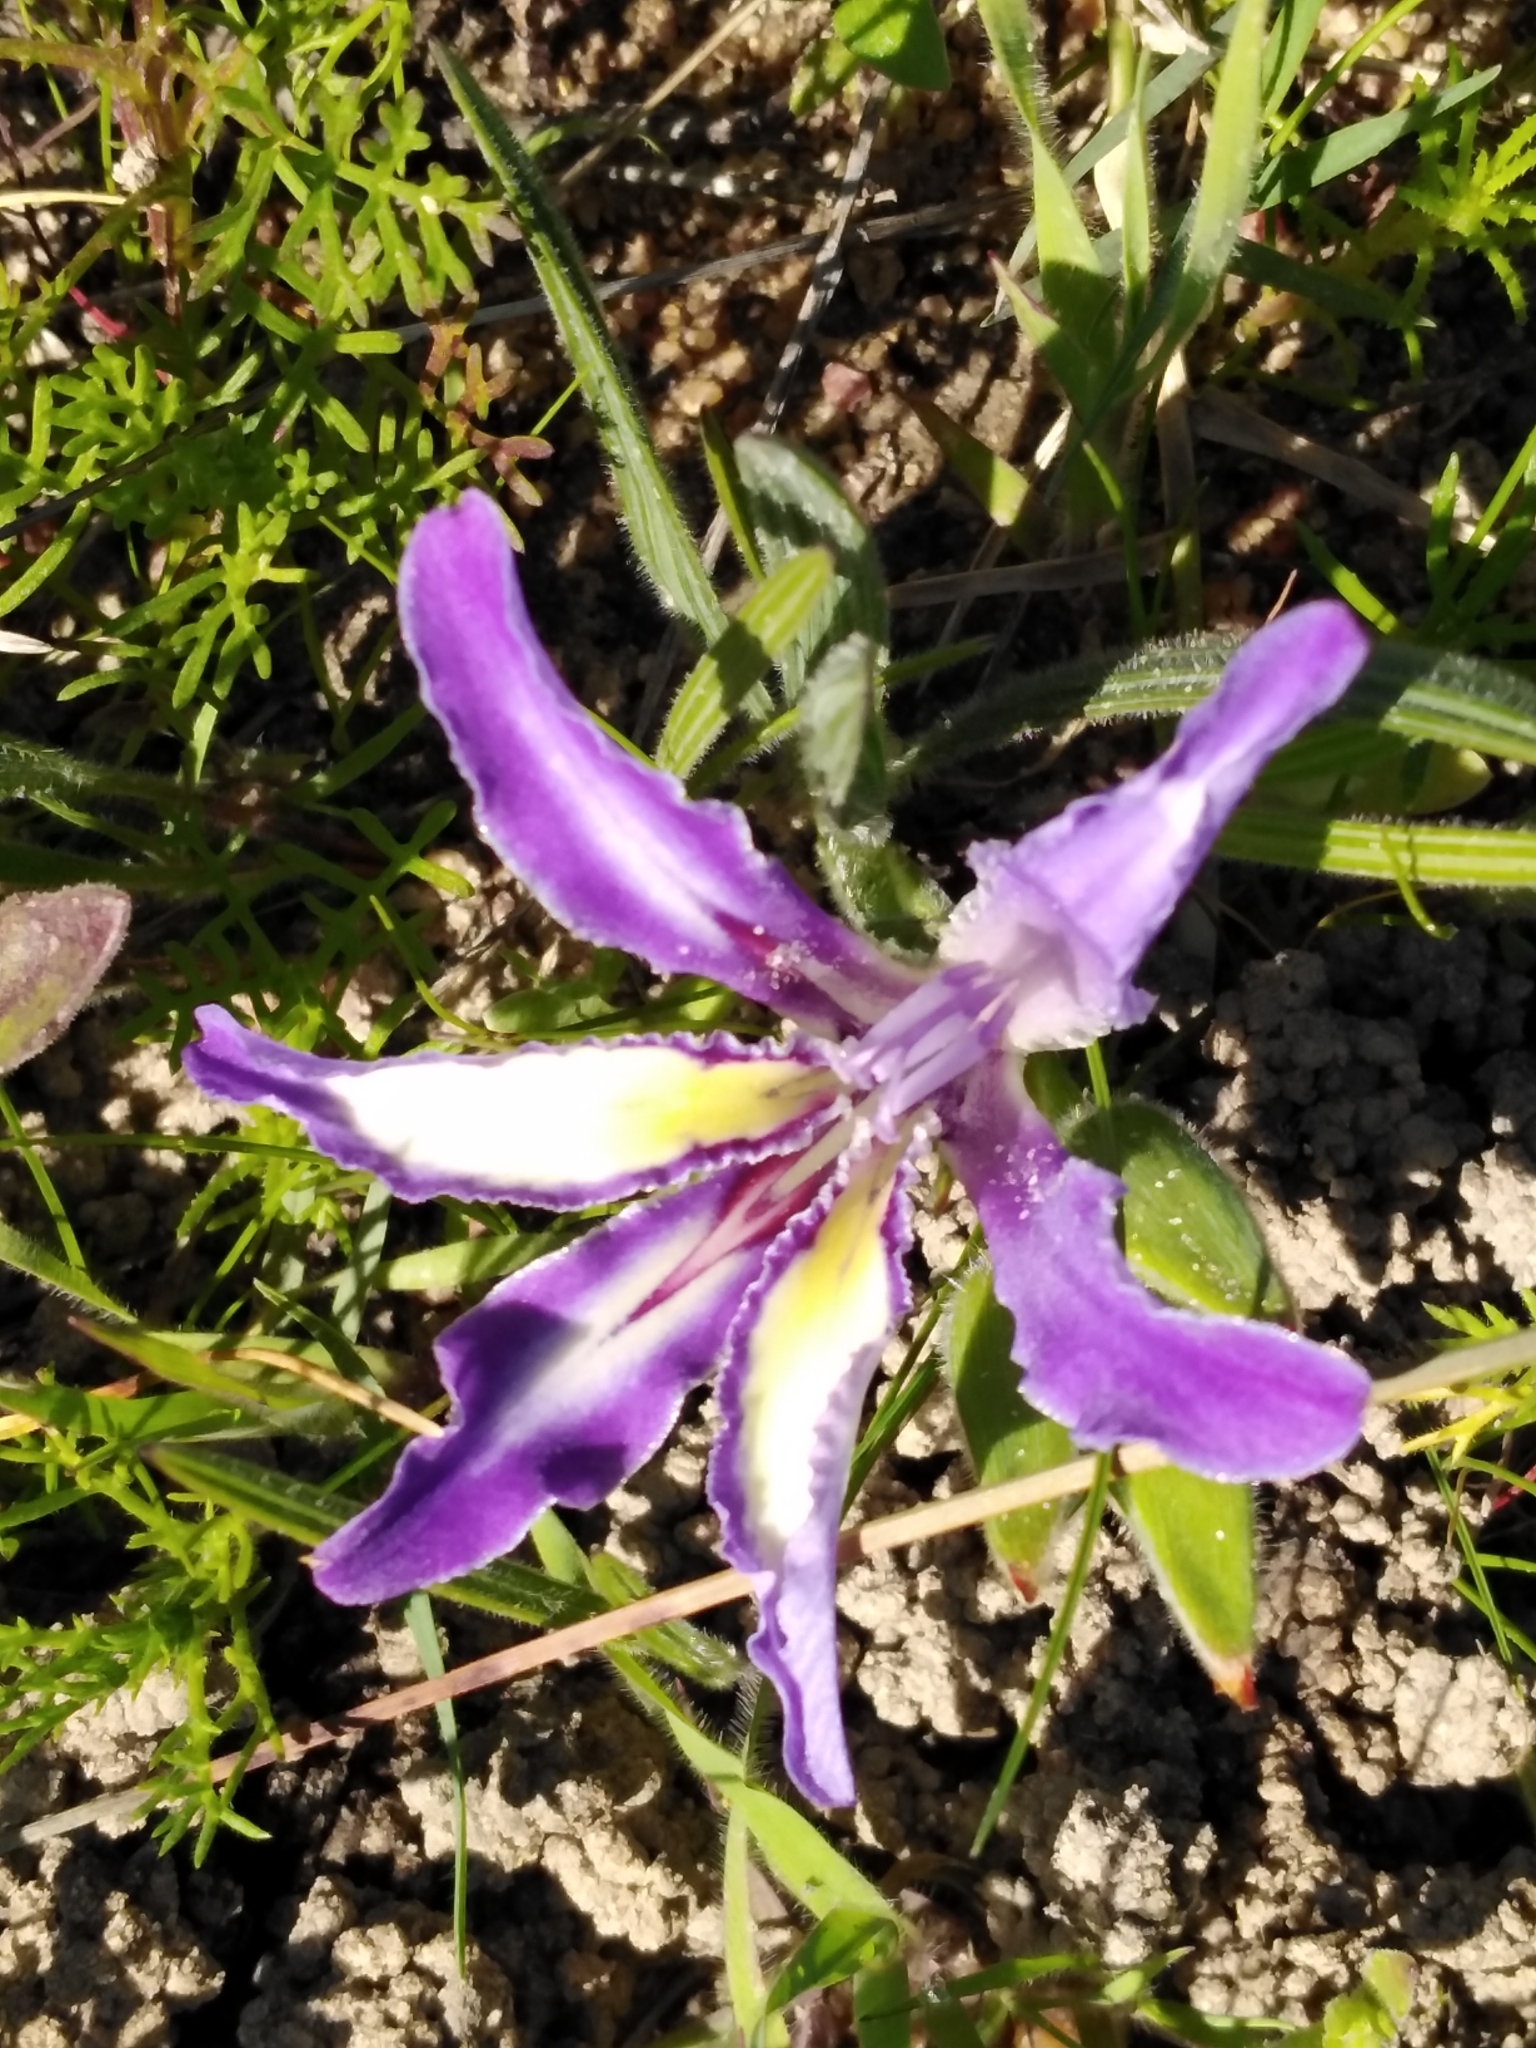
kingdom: Plantae
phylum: Tracheophyta
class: Liliopsida
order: Asparagales
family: Iridaceae
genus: Babiana
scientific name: Babiana ambigua
